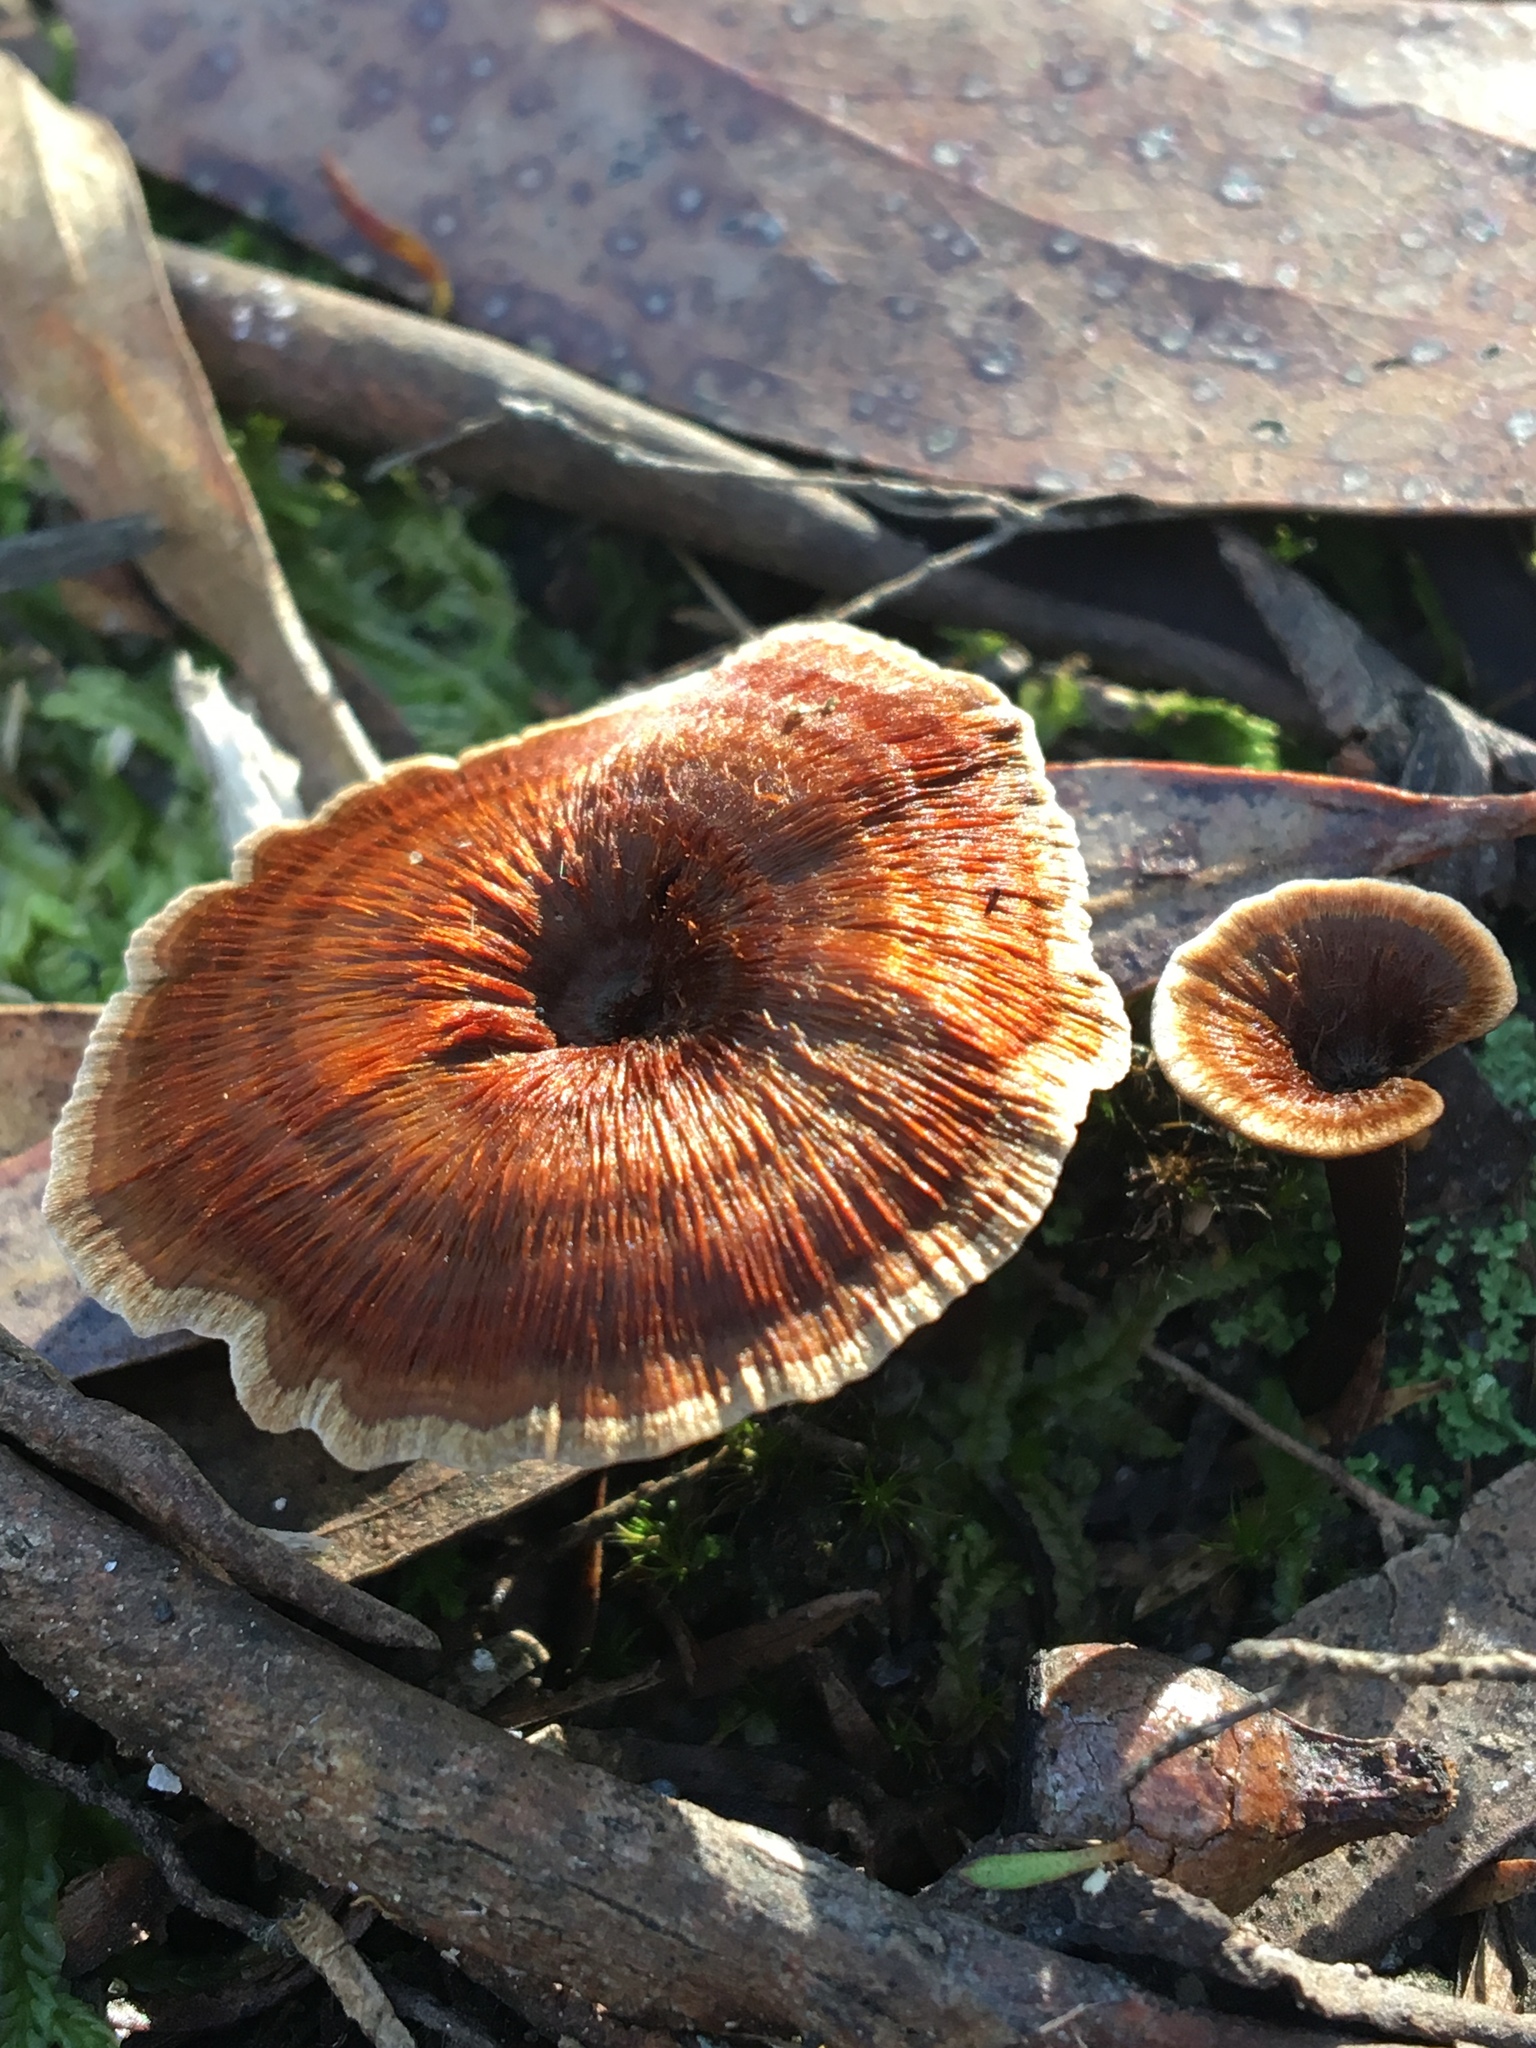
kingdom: Fungi
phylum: Basidiomycota
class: Agaricomycetes
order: Hymenochaetales
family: Hymenochaetaceae
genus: Coltricia
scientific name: Coltricia australica
